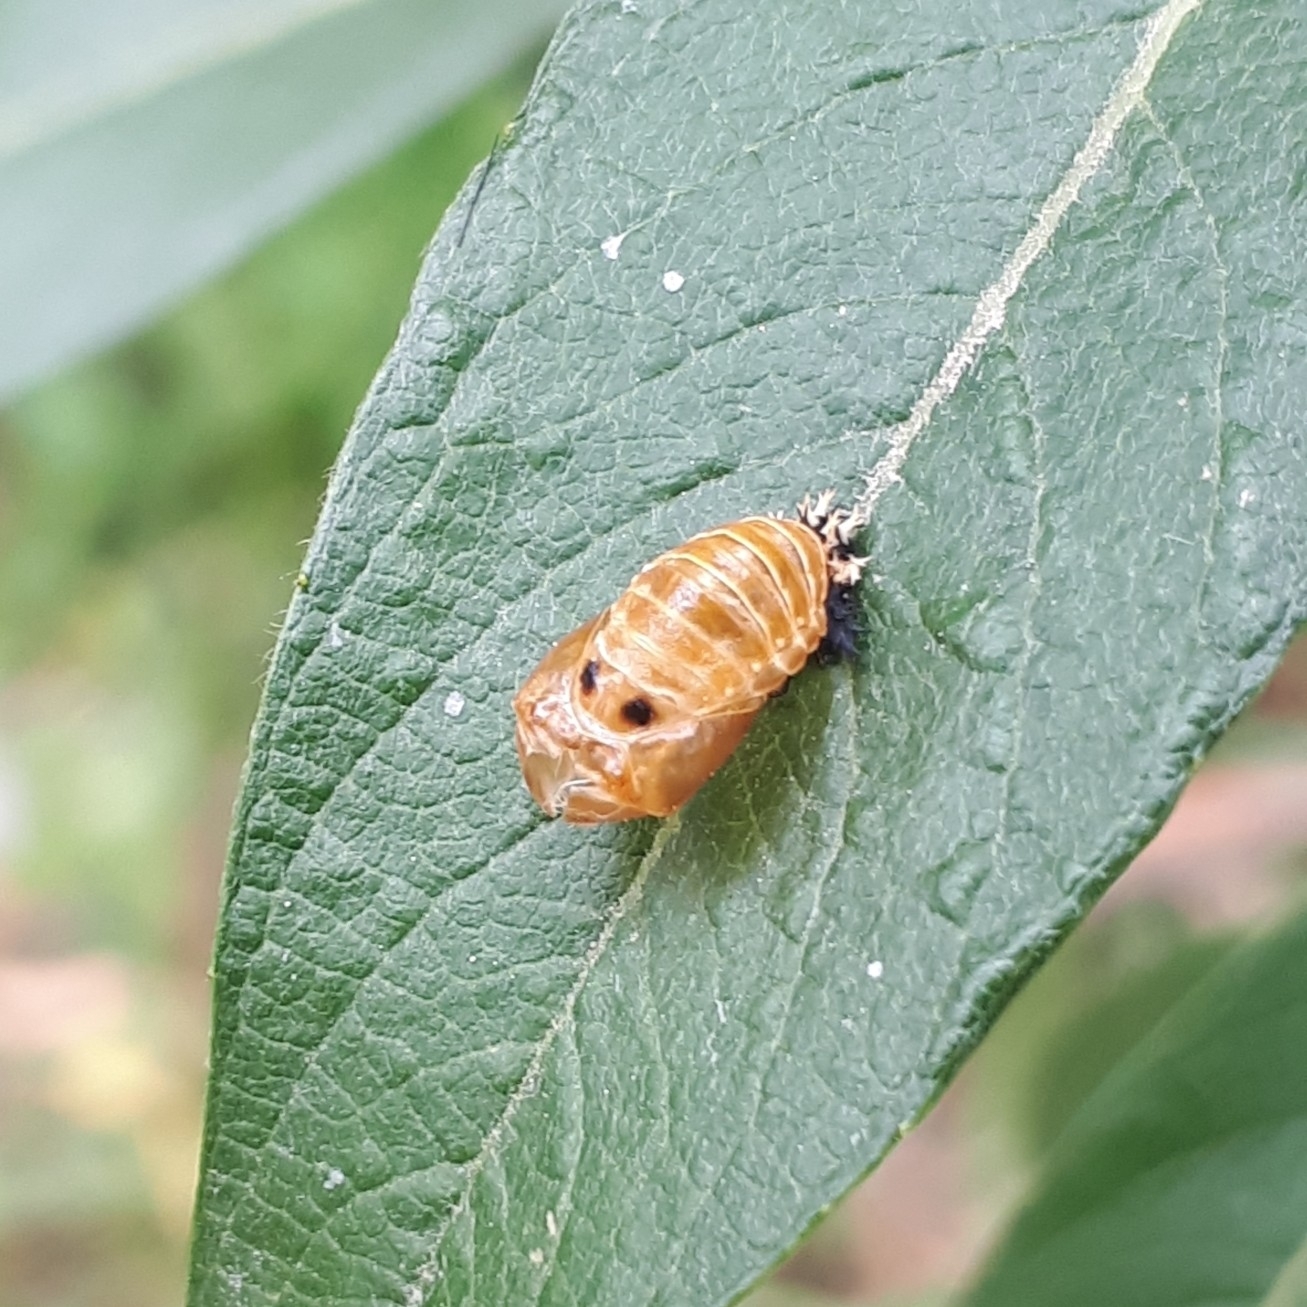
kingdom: Animalia
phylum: Arthropoda
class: Insecta
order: Coleoptera
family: Coccinellidae
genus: Harmonia
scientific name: Harmonia axyridis
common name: Harlequin ladybird
